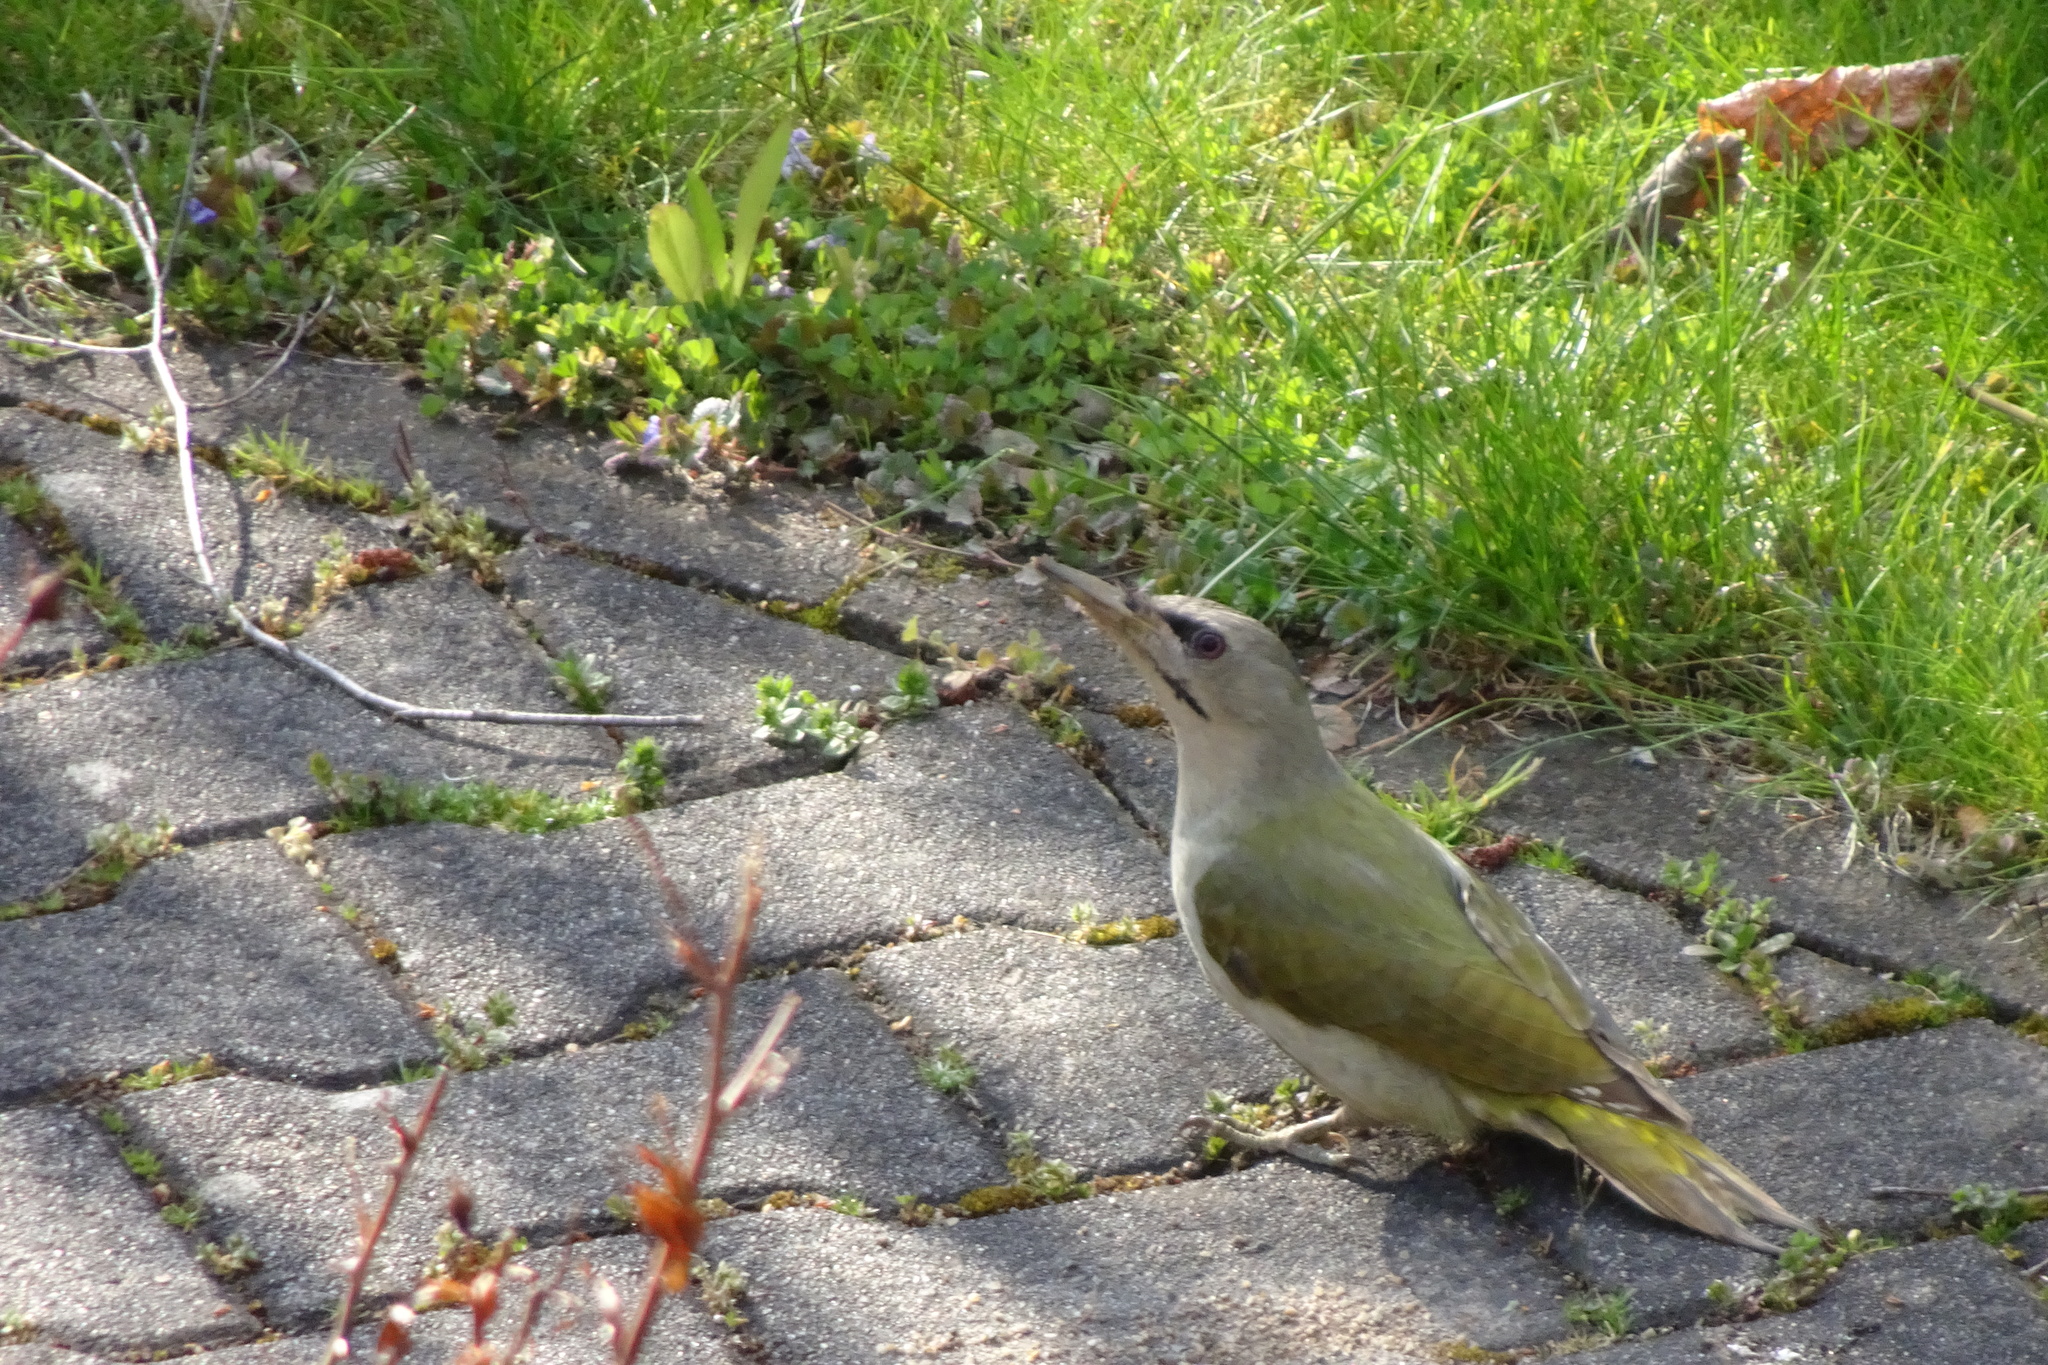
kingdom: Animalia
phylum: Chordata
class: Aves
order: Piciformes
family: Picidae
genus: Picus
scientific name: Picus canus
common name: Grey-headed woodpecker
